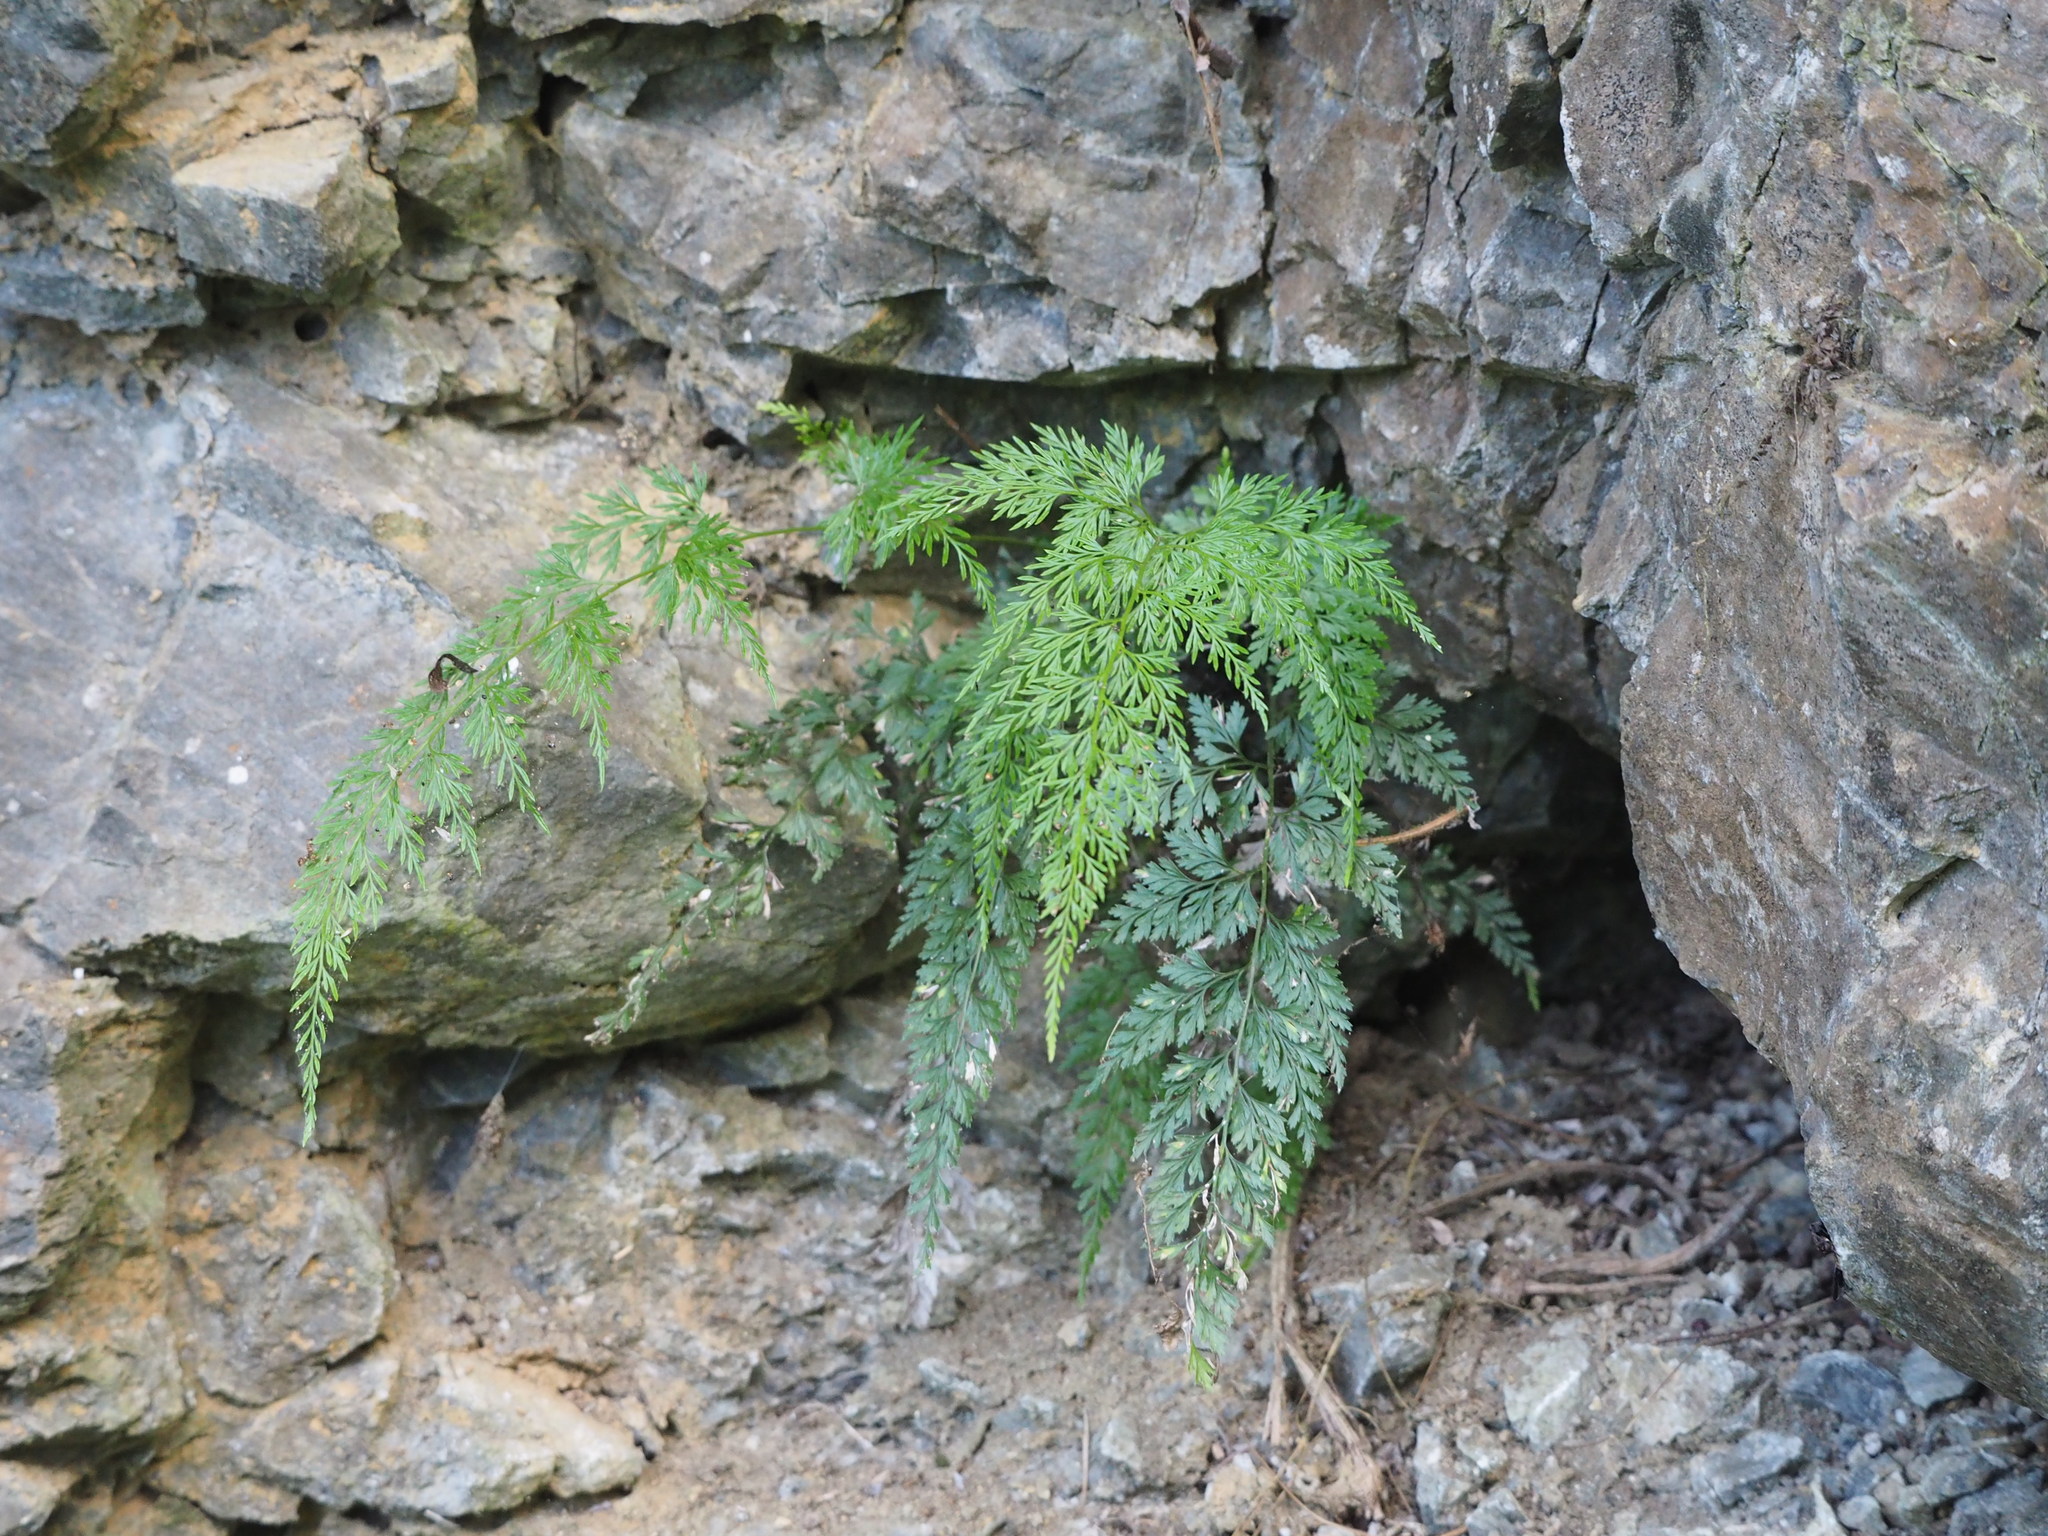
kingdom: Plantae
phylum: Tracheophyta
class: Polypodiopsida
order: Polypodiales
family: Pteridaceae
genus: Onychium
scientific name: Onychium japonicum
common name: Carrot fern
